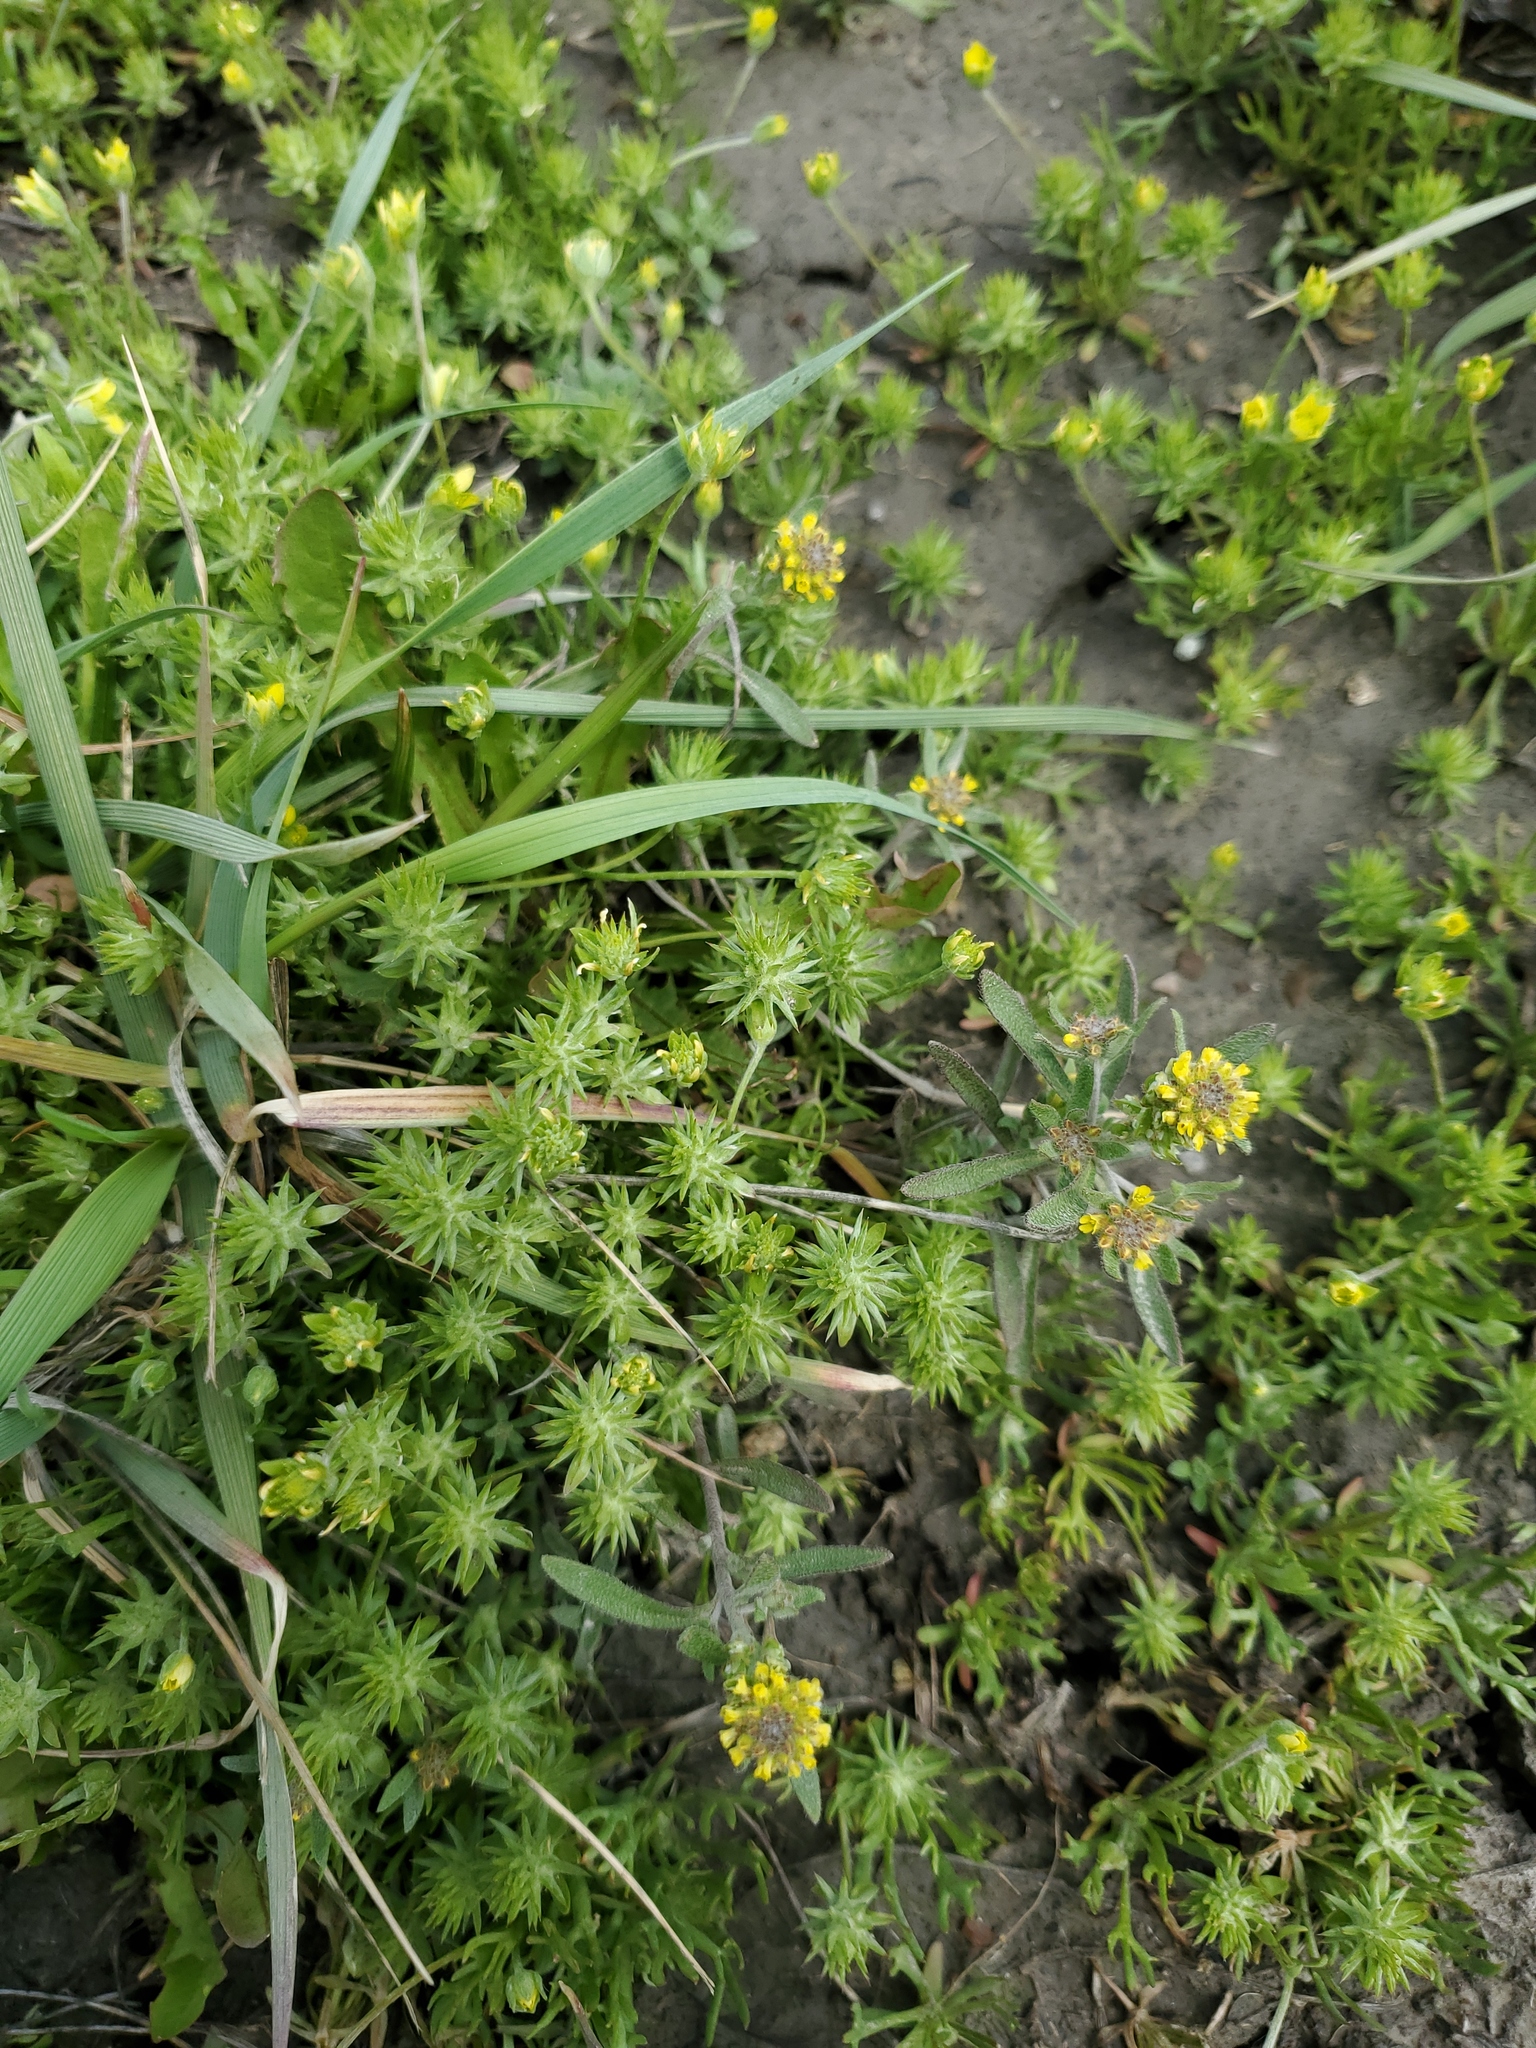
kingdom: Plantae
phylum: Tracheophyta
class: Magnoliopsida
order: Ranunculales
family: Ranunculaceae
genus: Ceratocephala
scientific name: Ceratocephala orthoceras
